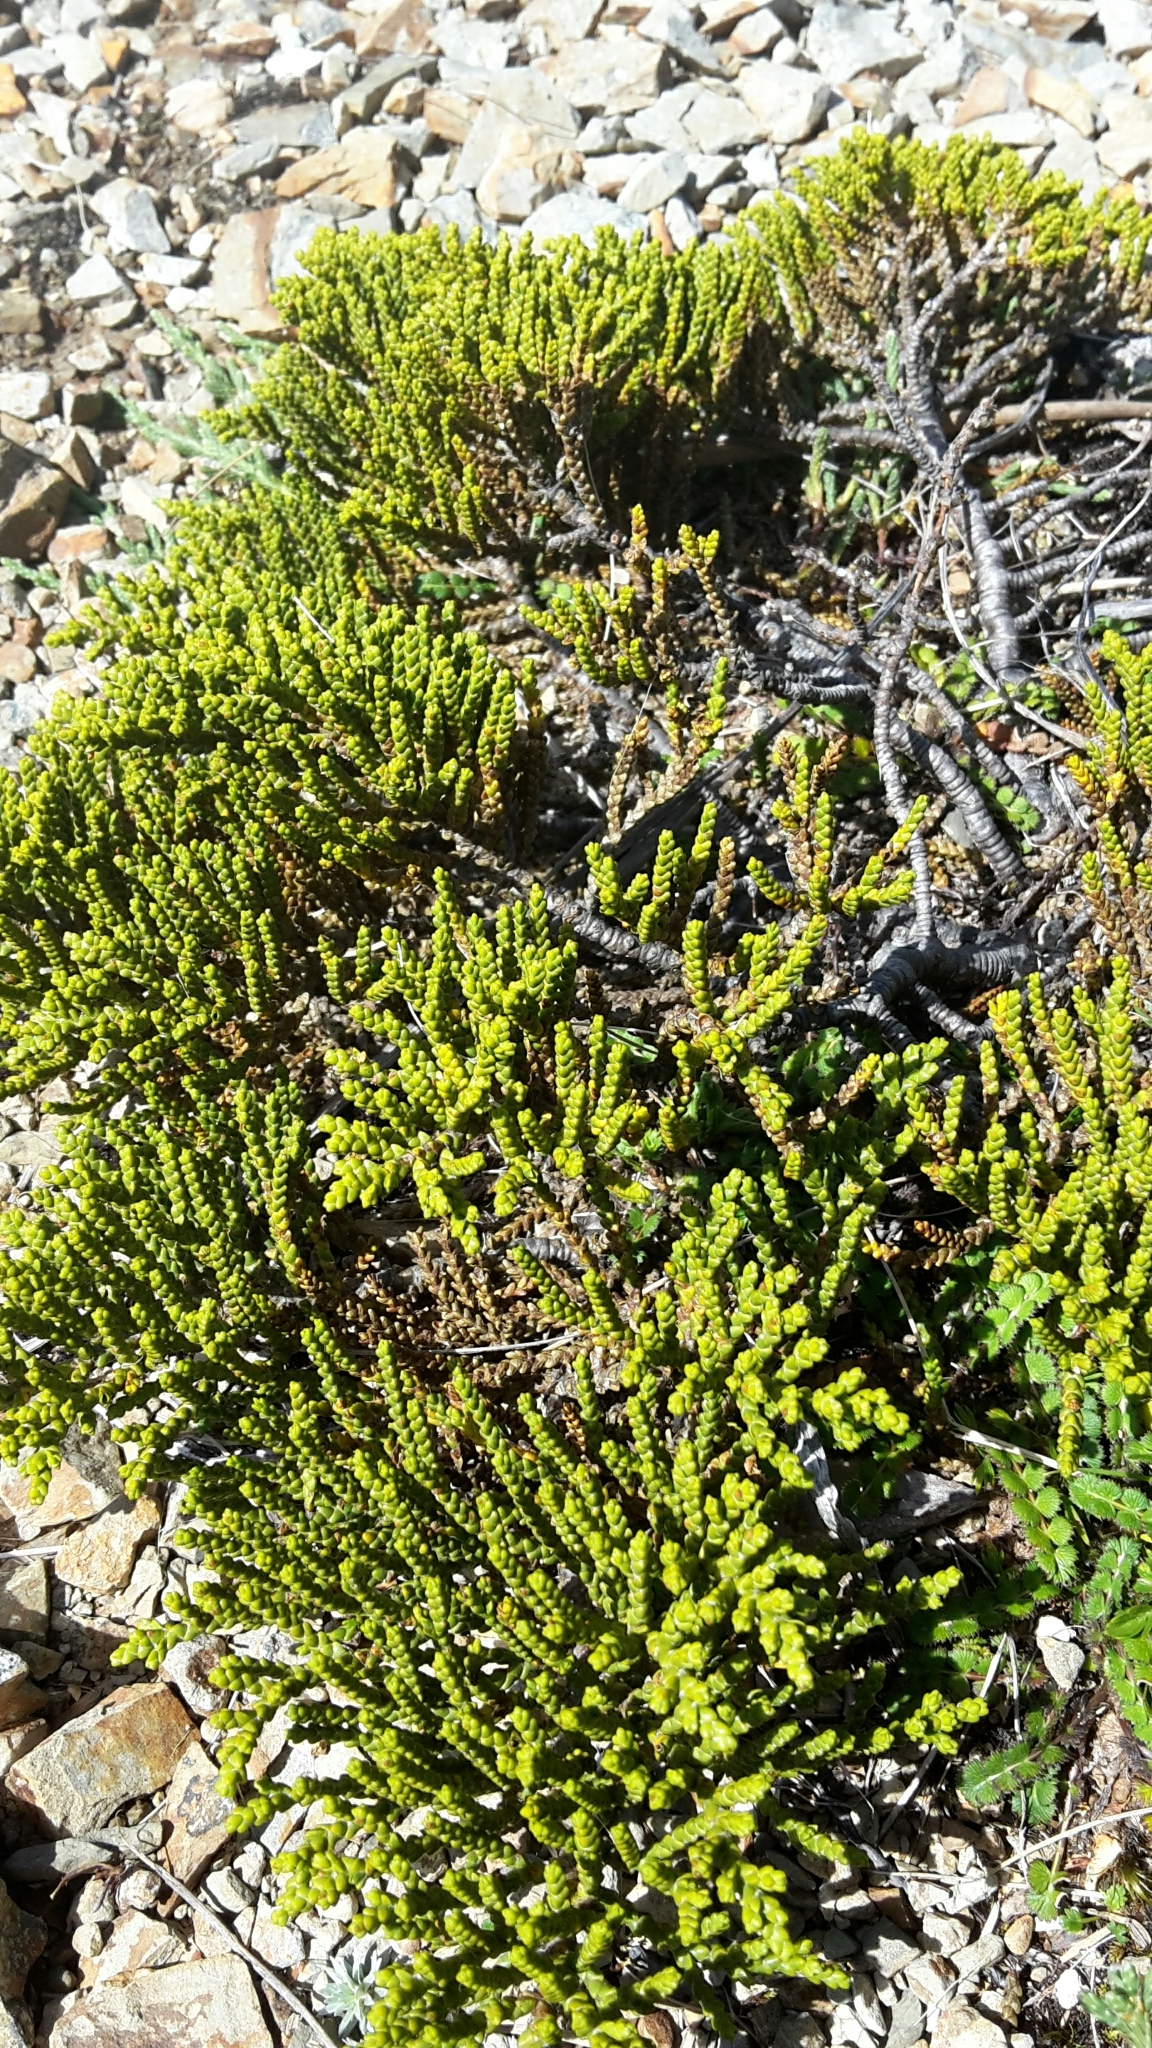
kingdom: Plantae
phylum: Tracheophyta
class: Magnoliopsida
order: Lamiales
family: Plantaginaceae
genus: Veronica
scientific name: Veronica tetragona
